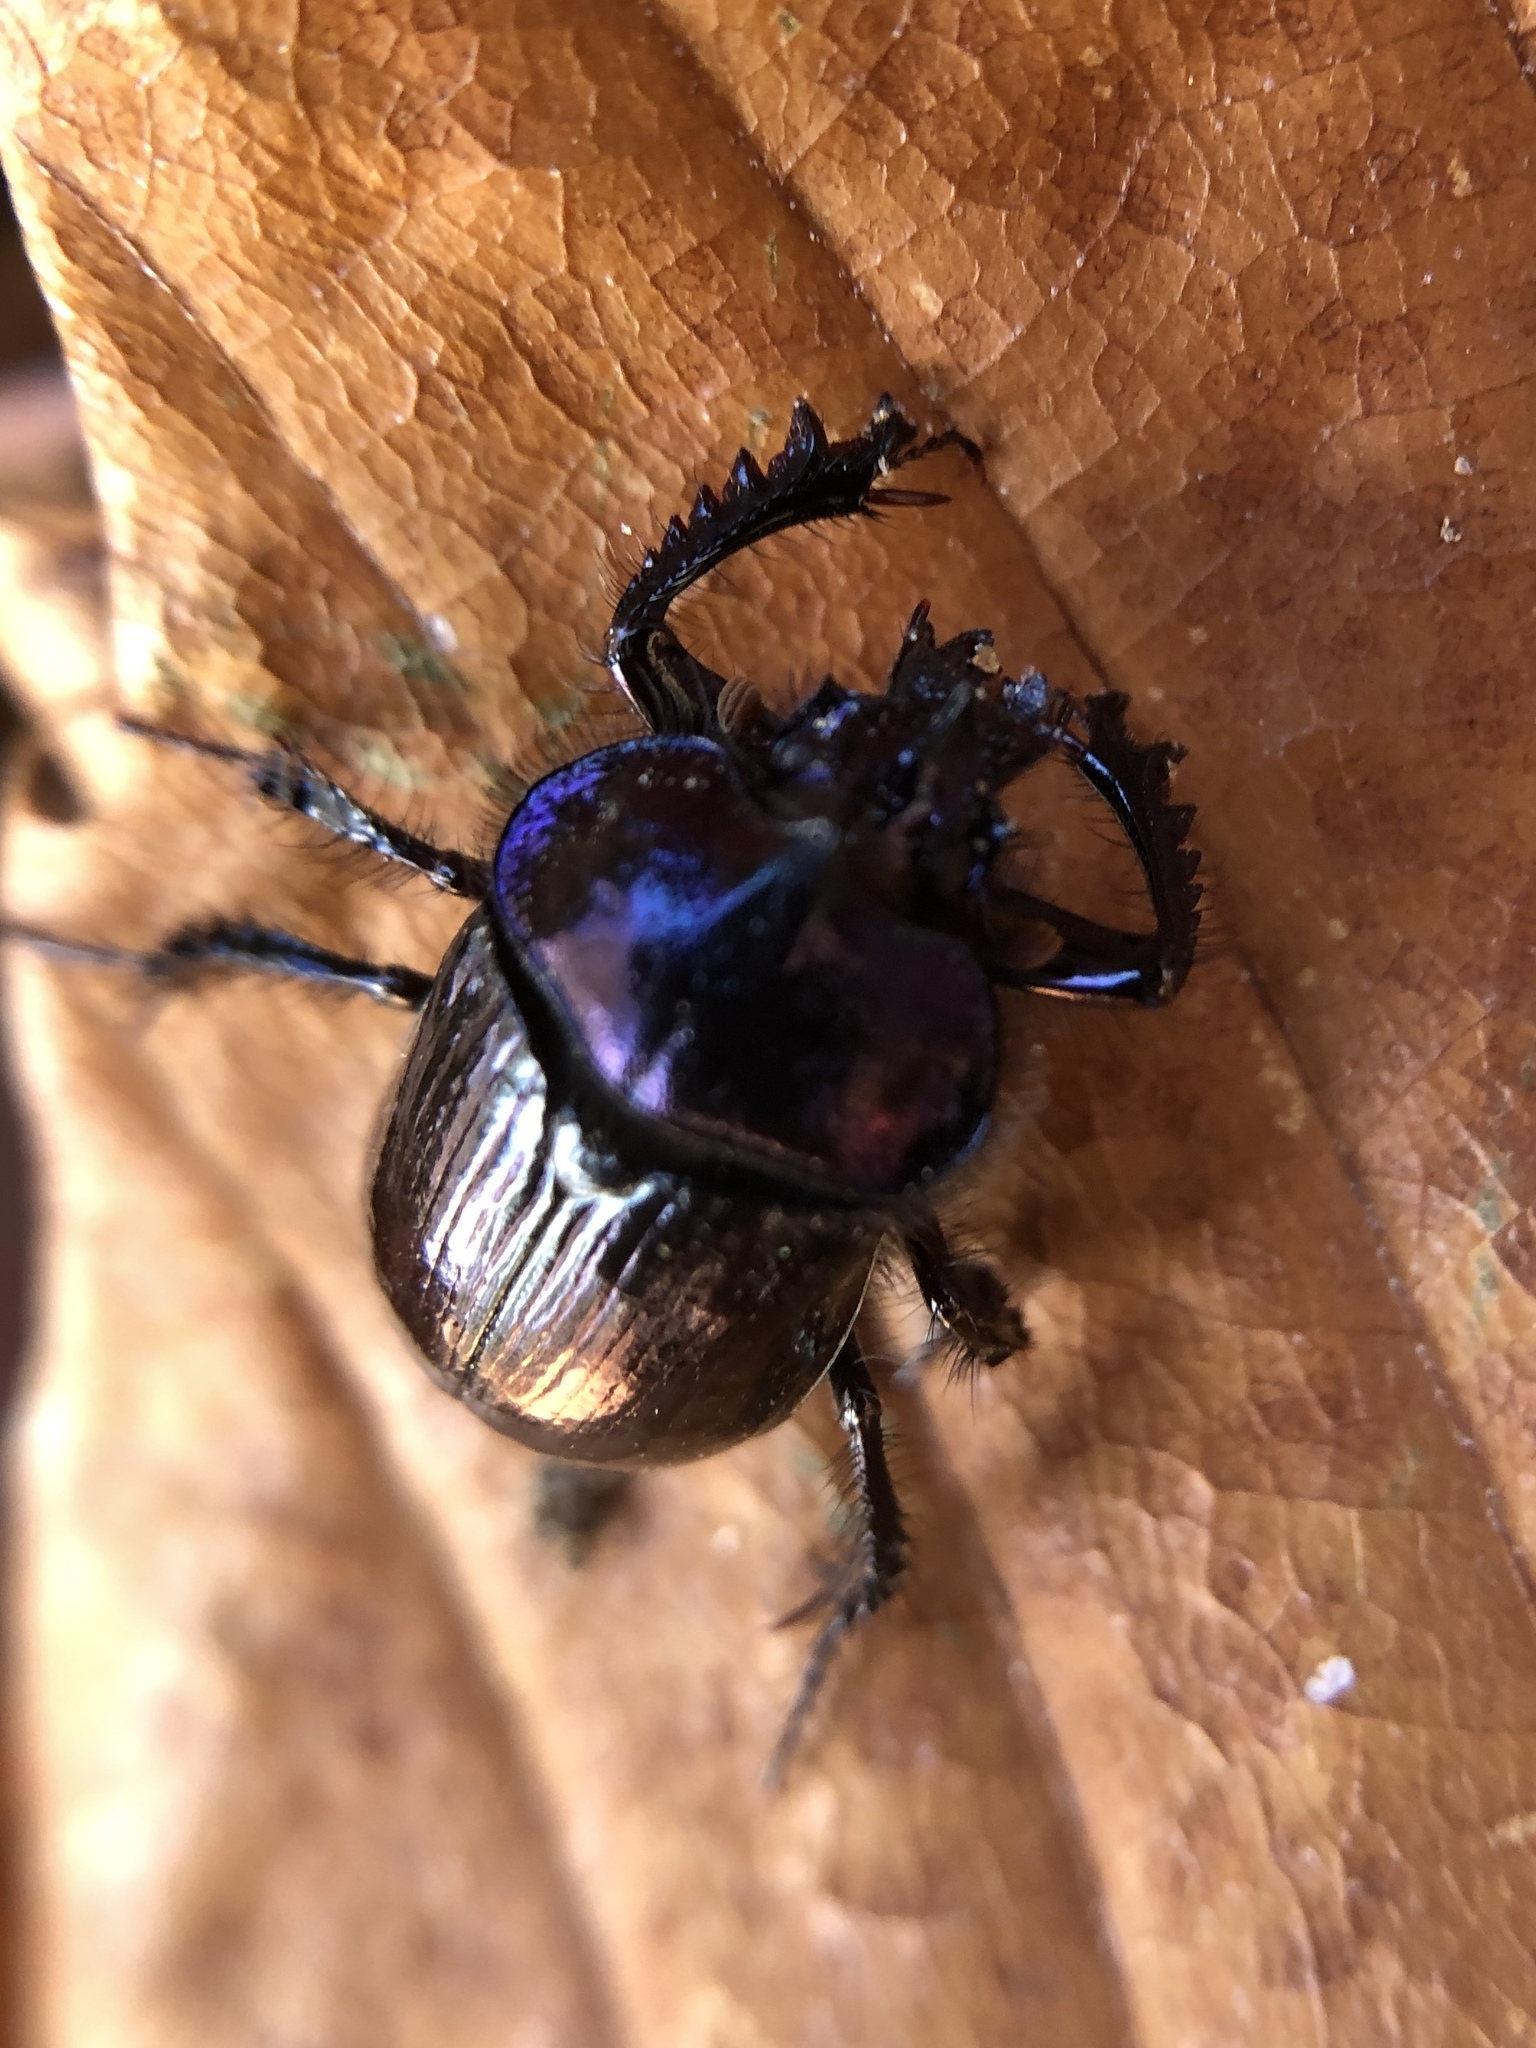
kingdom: Animalia
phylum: Arthropoda
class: Insecta
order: Coleoptera
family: Geotrupidae
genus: Ceratophyus
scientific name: Ceratophyus martinezi
